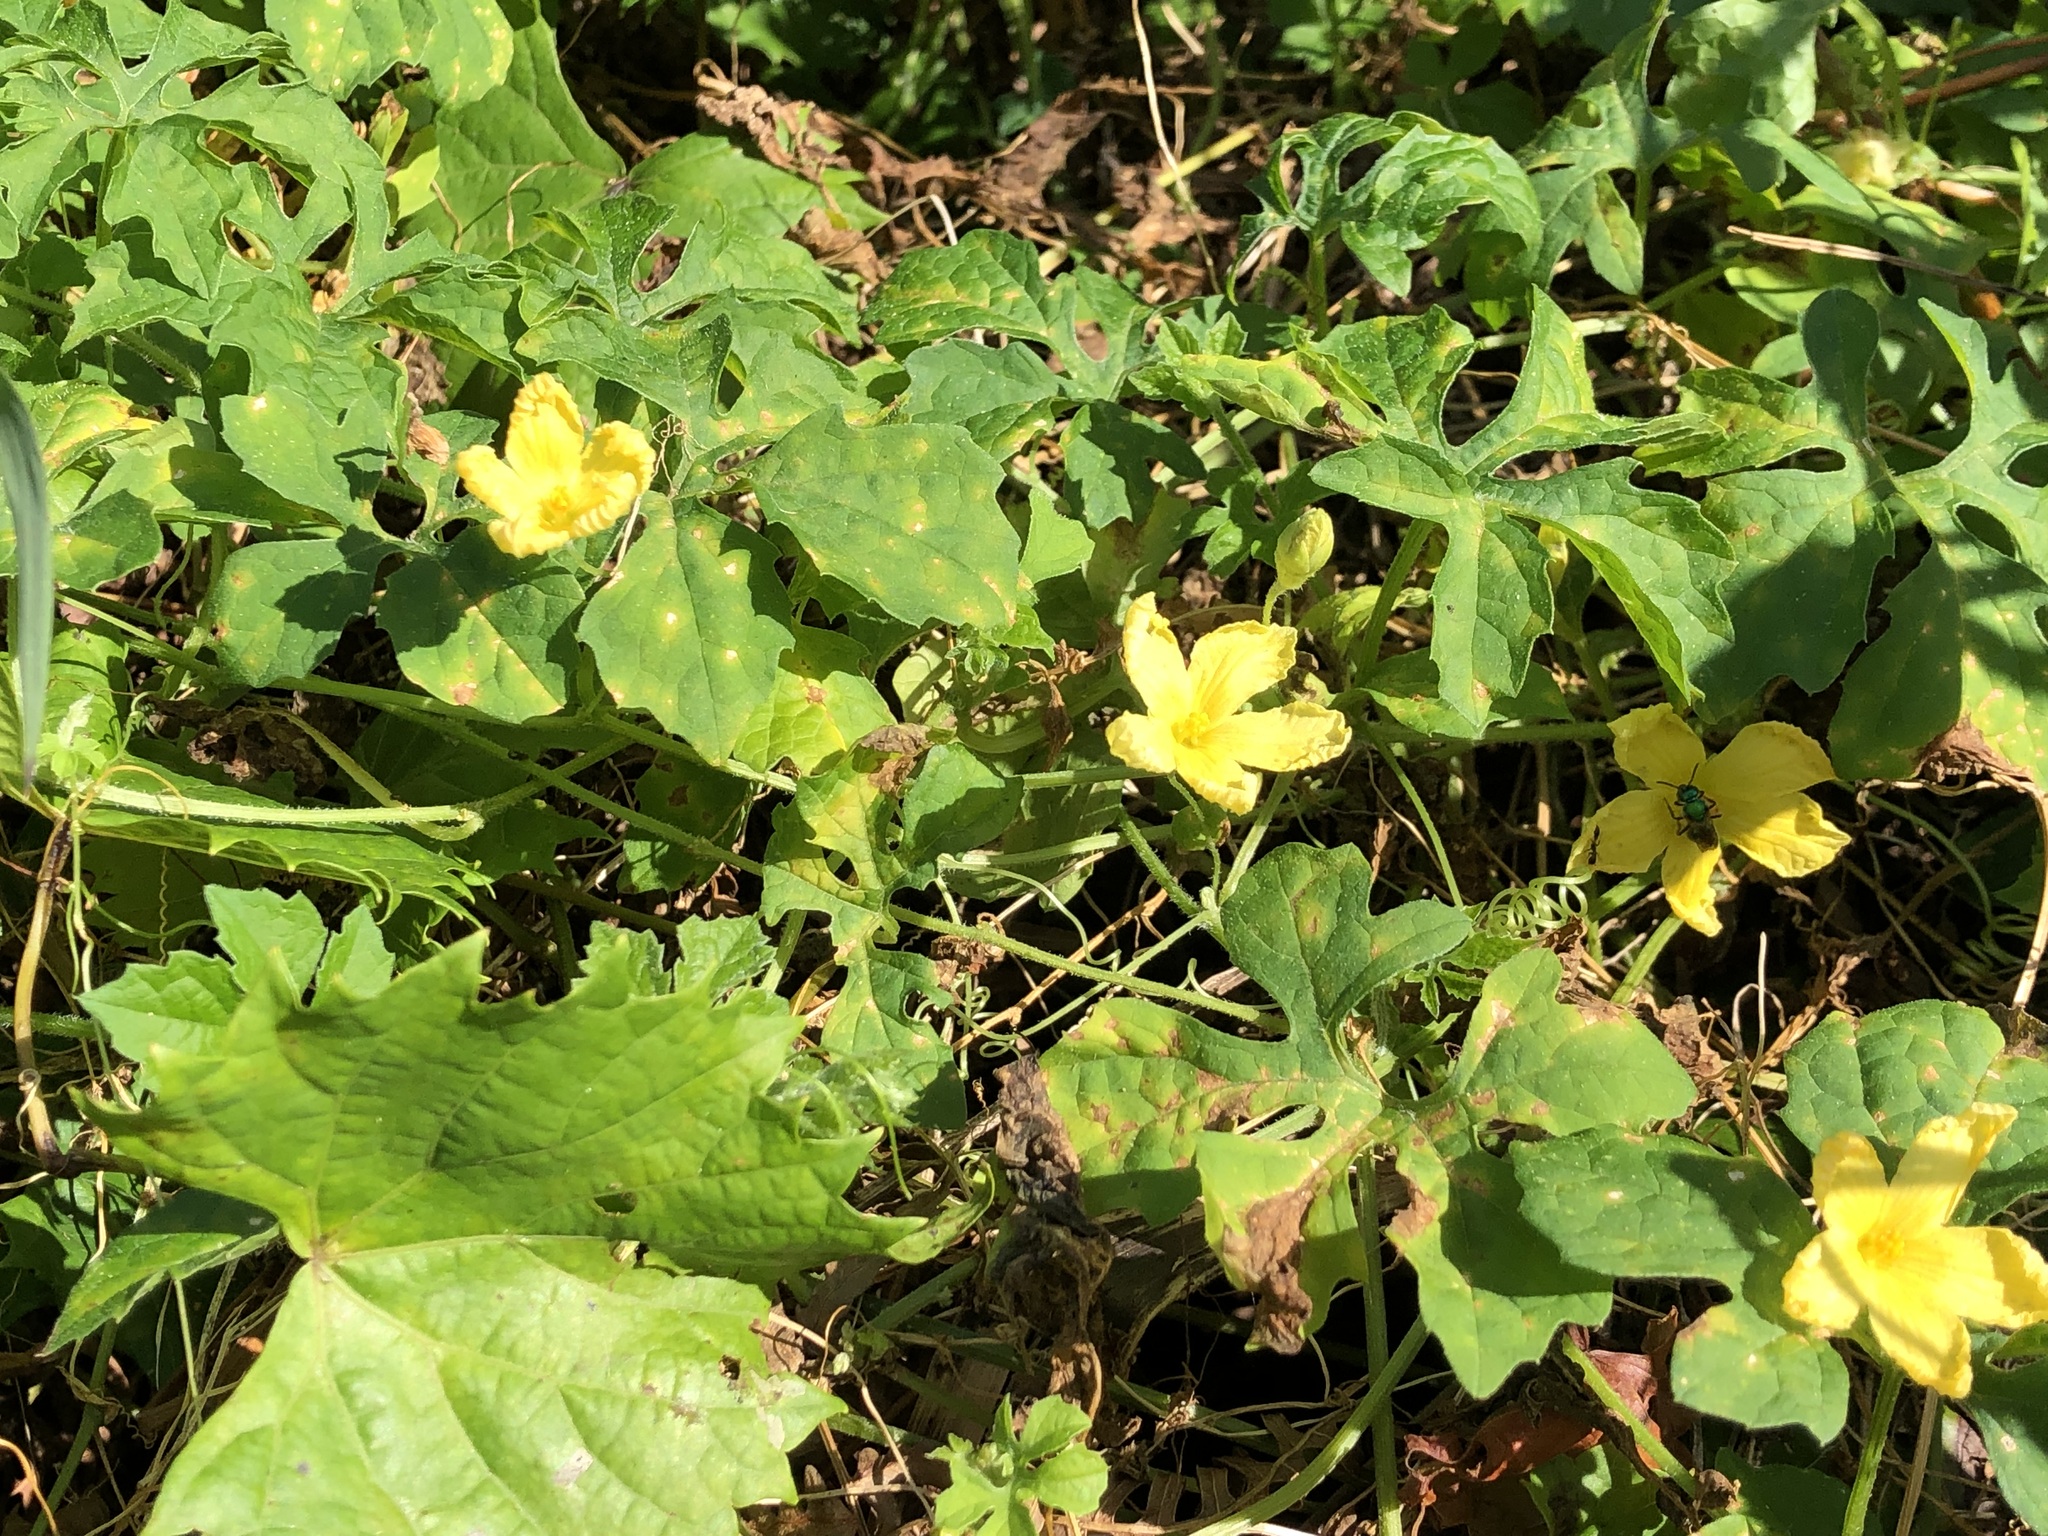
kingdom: Plantae
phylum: Tracheophyta
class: Magnoliopsida
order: Cucurbitales
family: Cucurbitaceae
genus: Momordica
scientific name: Momordica charantia
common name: Balsampear
